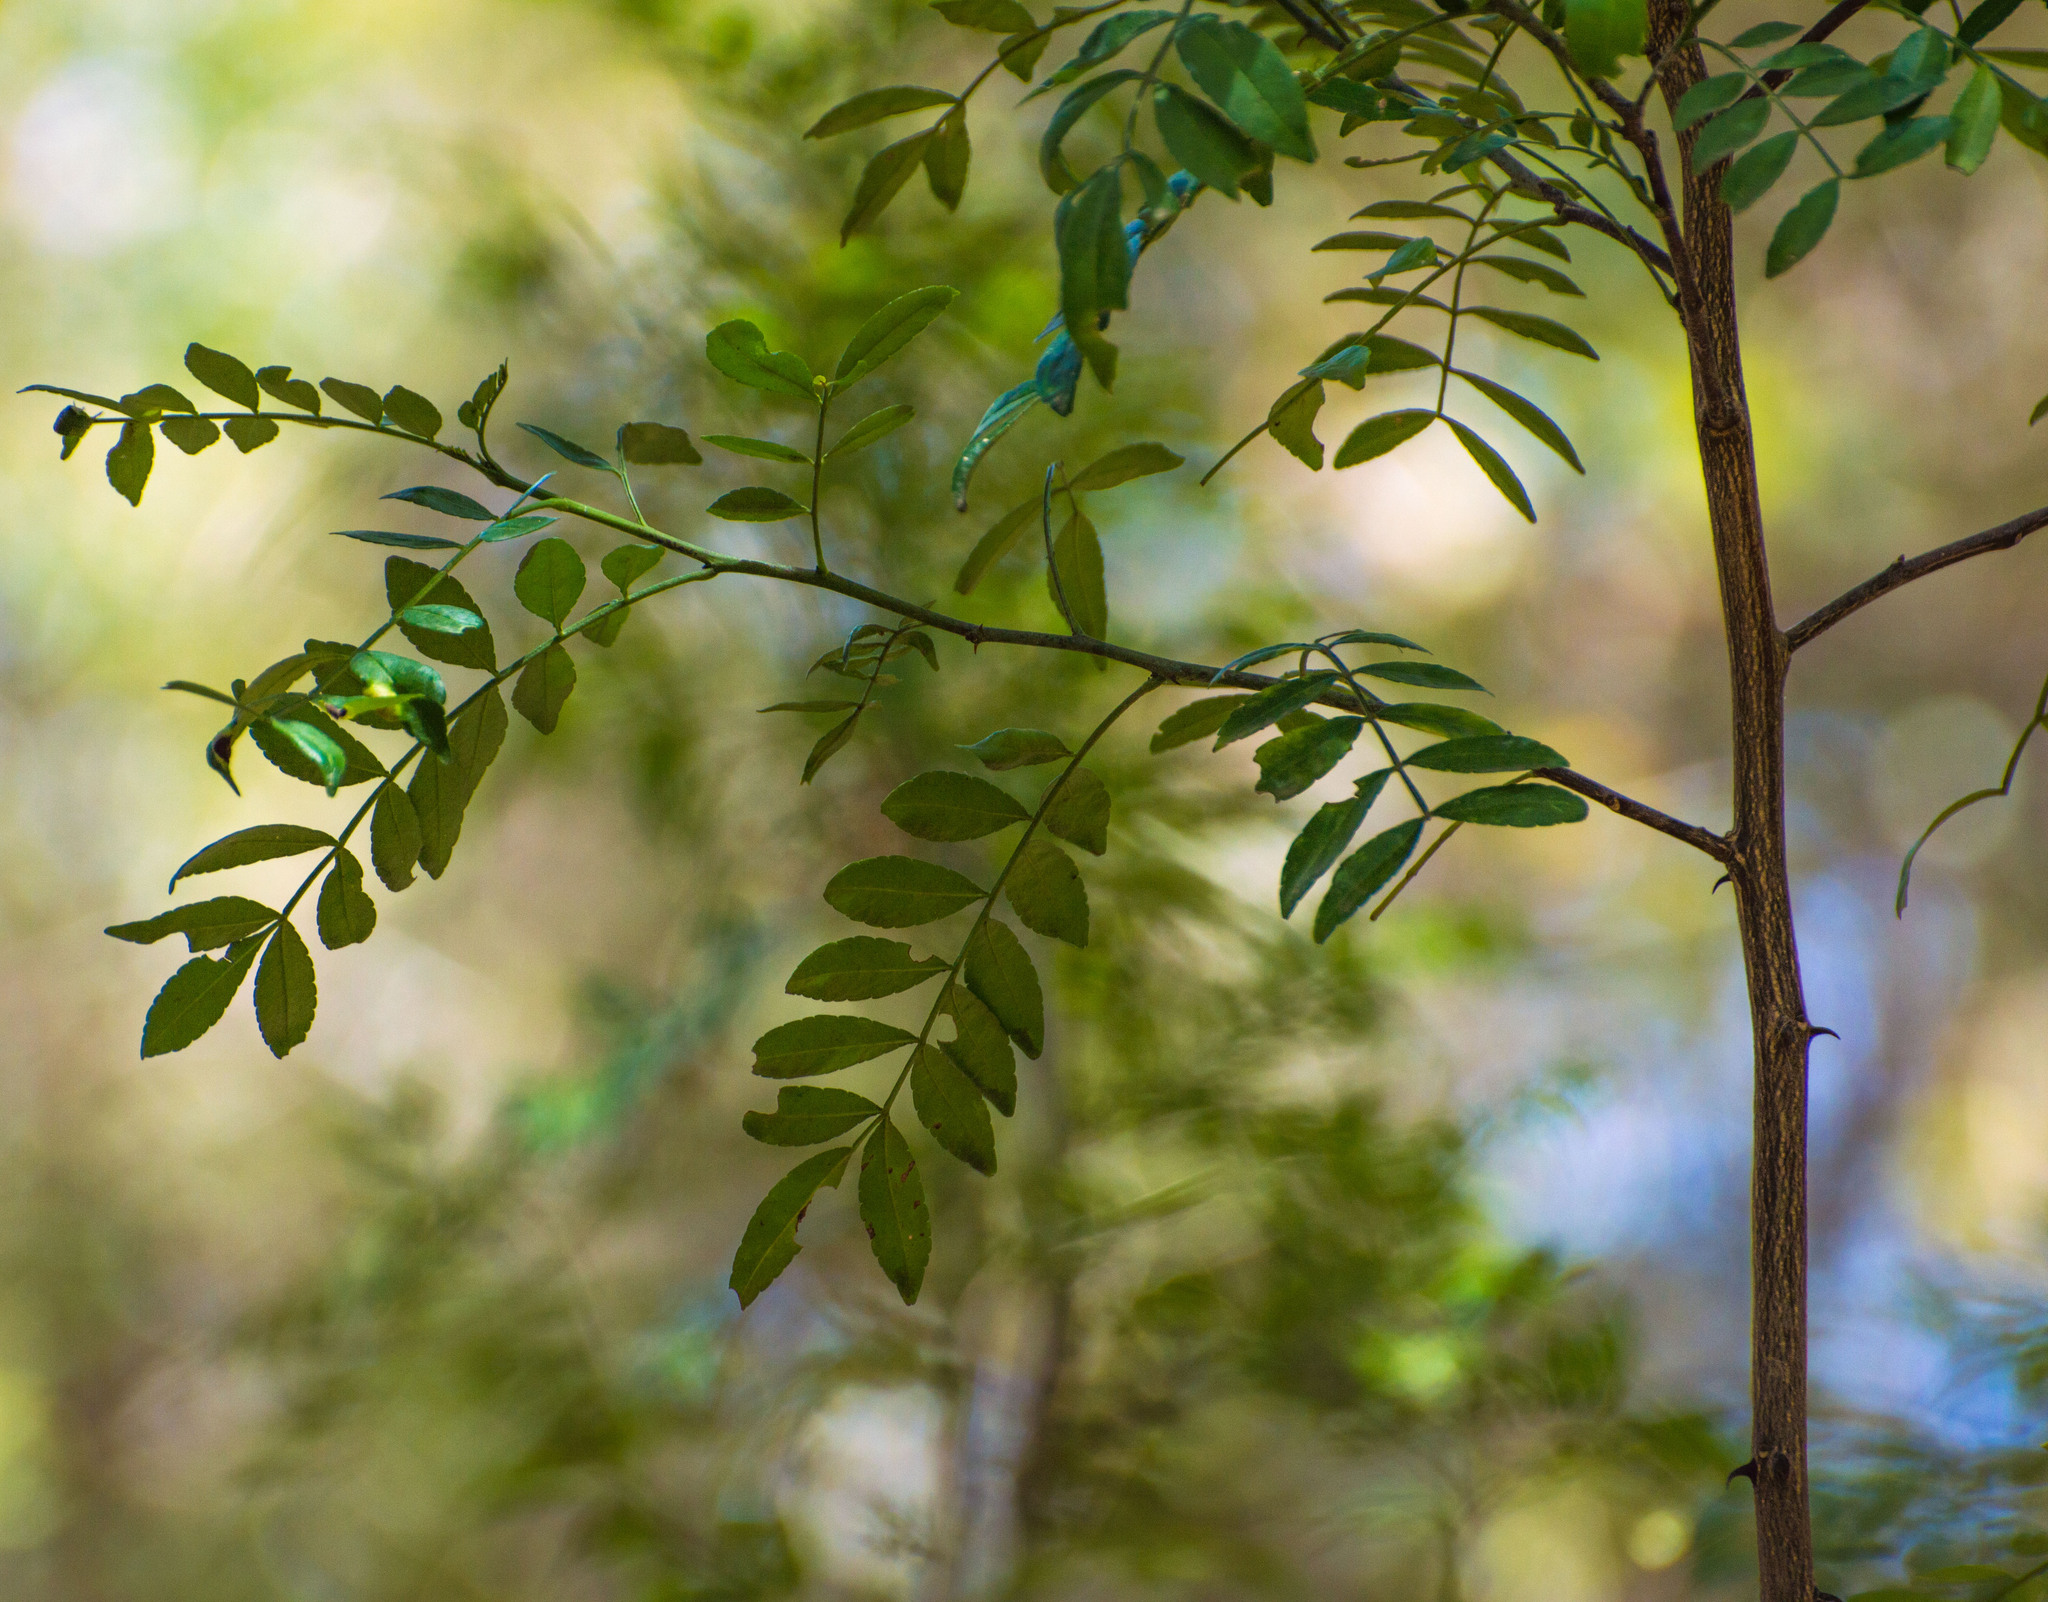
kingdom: Plantae
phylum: Tracheophyta
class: Magnoliopsida
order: Sapindales
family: Rutaceae
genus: Zanthoxylum
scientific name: Zanthoxylum fagara
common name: Lime prickly-ash
